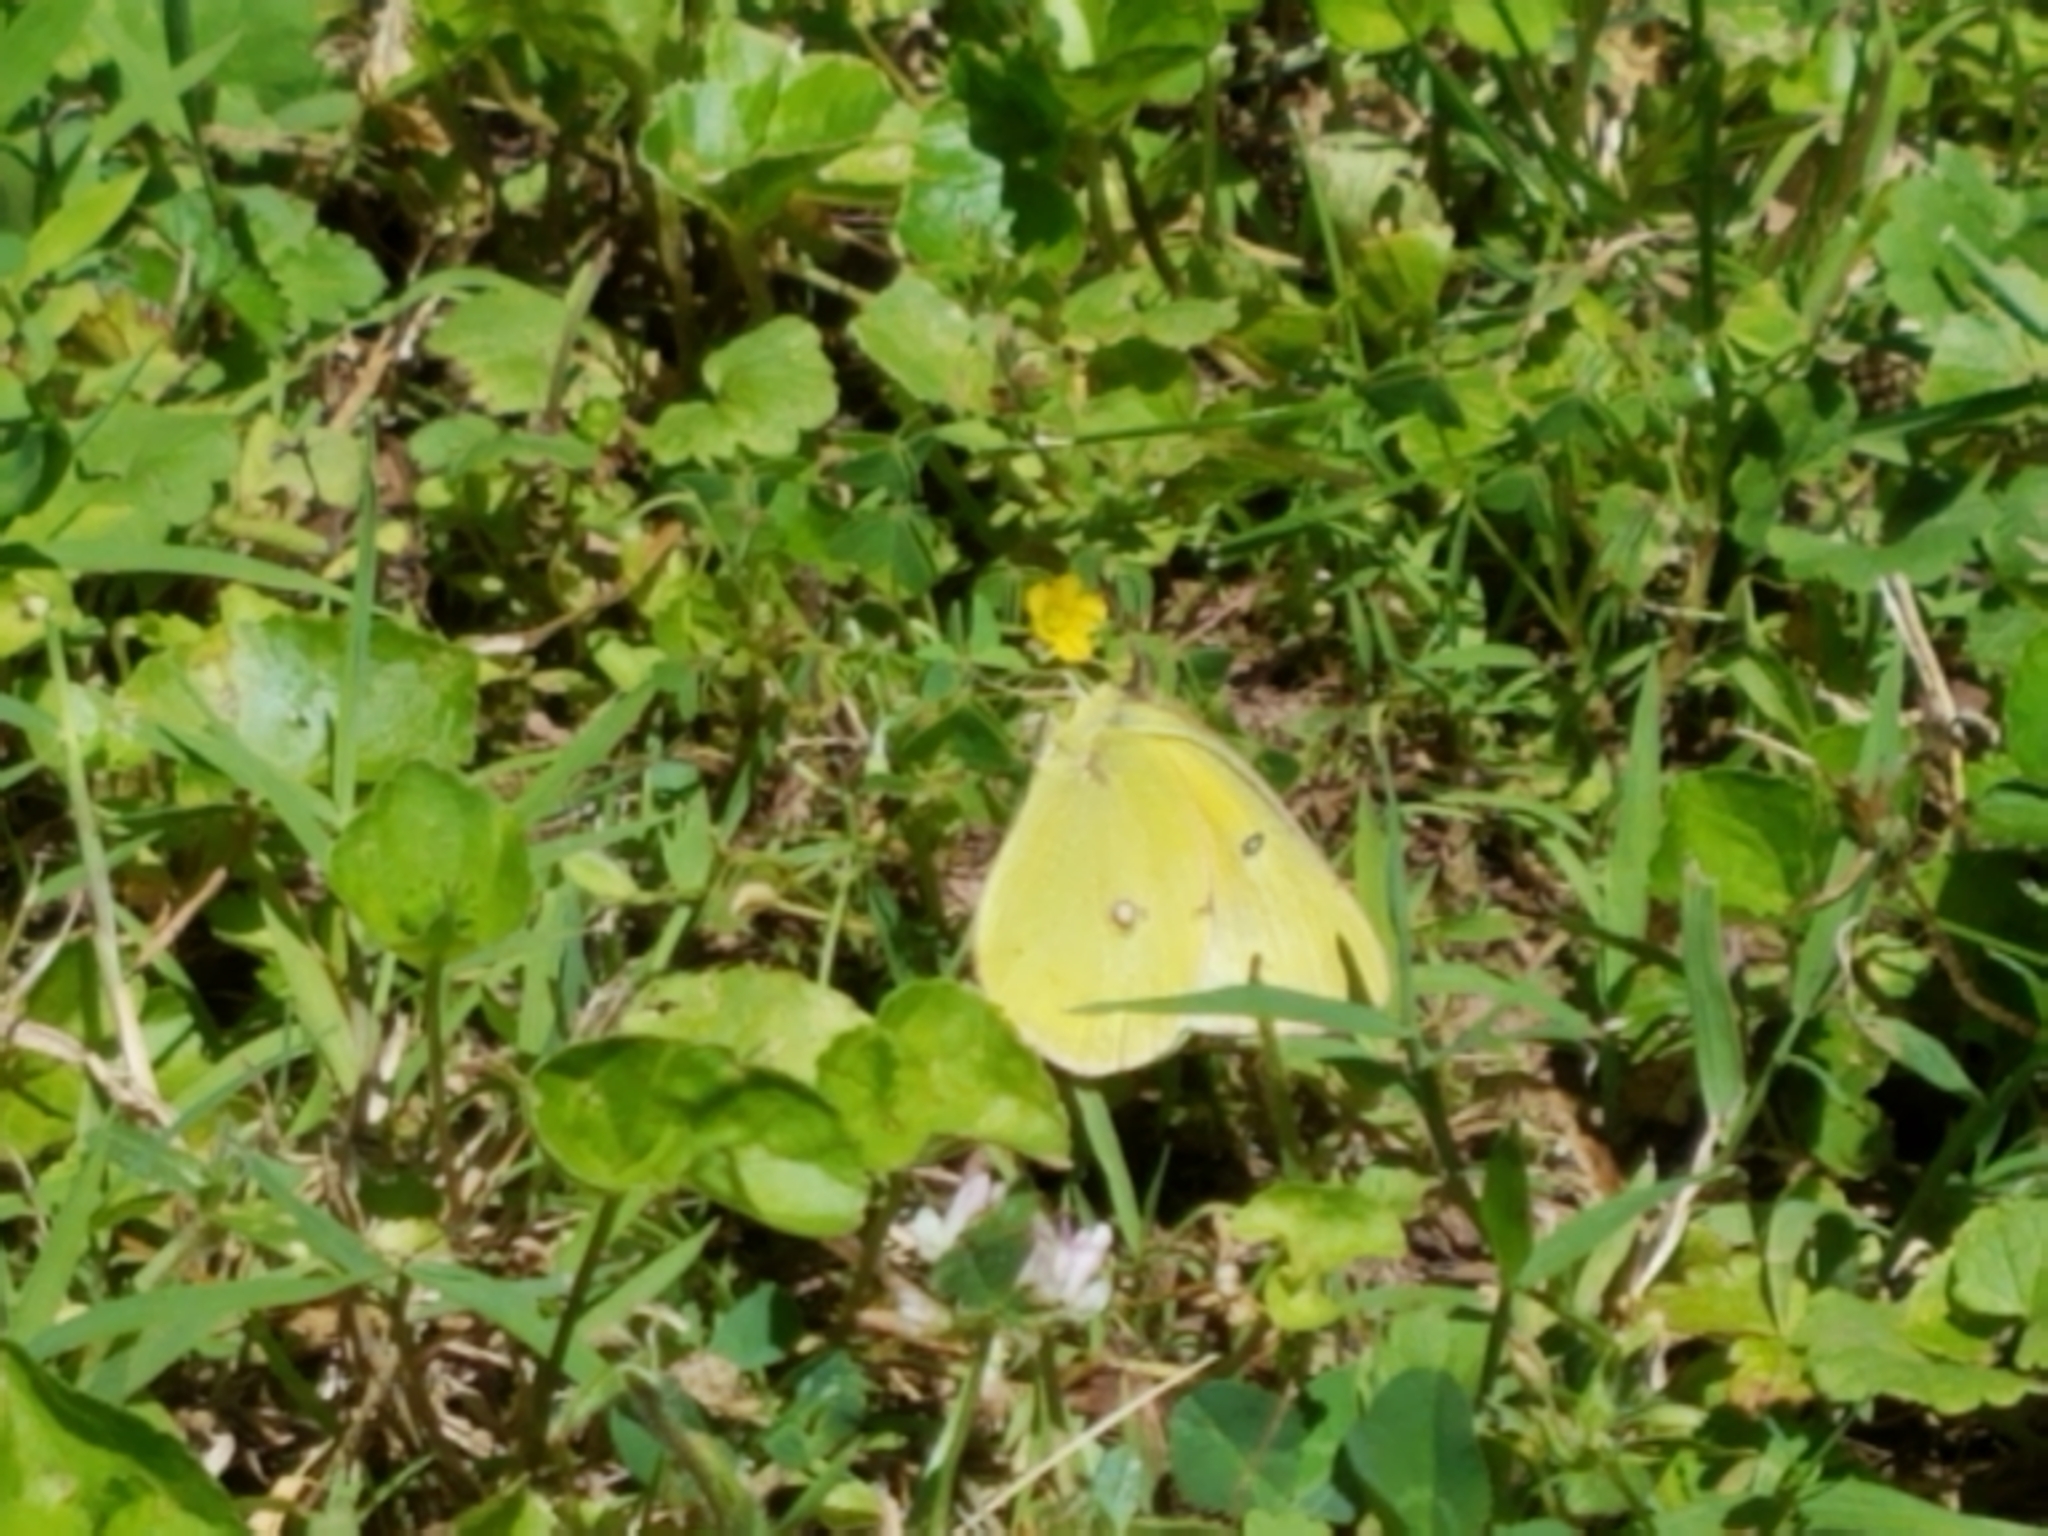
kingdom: Animalia
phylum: Arthropoda
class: Insecta
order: Lepidoptera
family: Pieridae
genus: Colias
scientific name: Colias eurytheme
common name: Alfalfa butterfly
